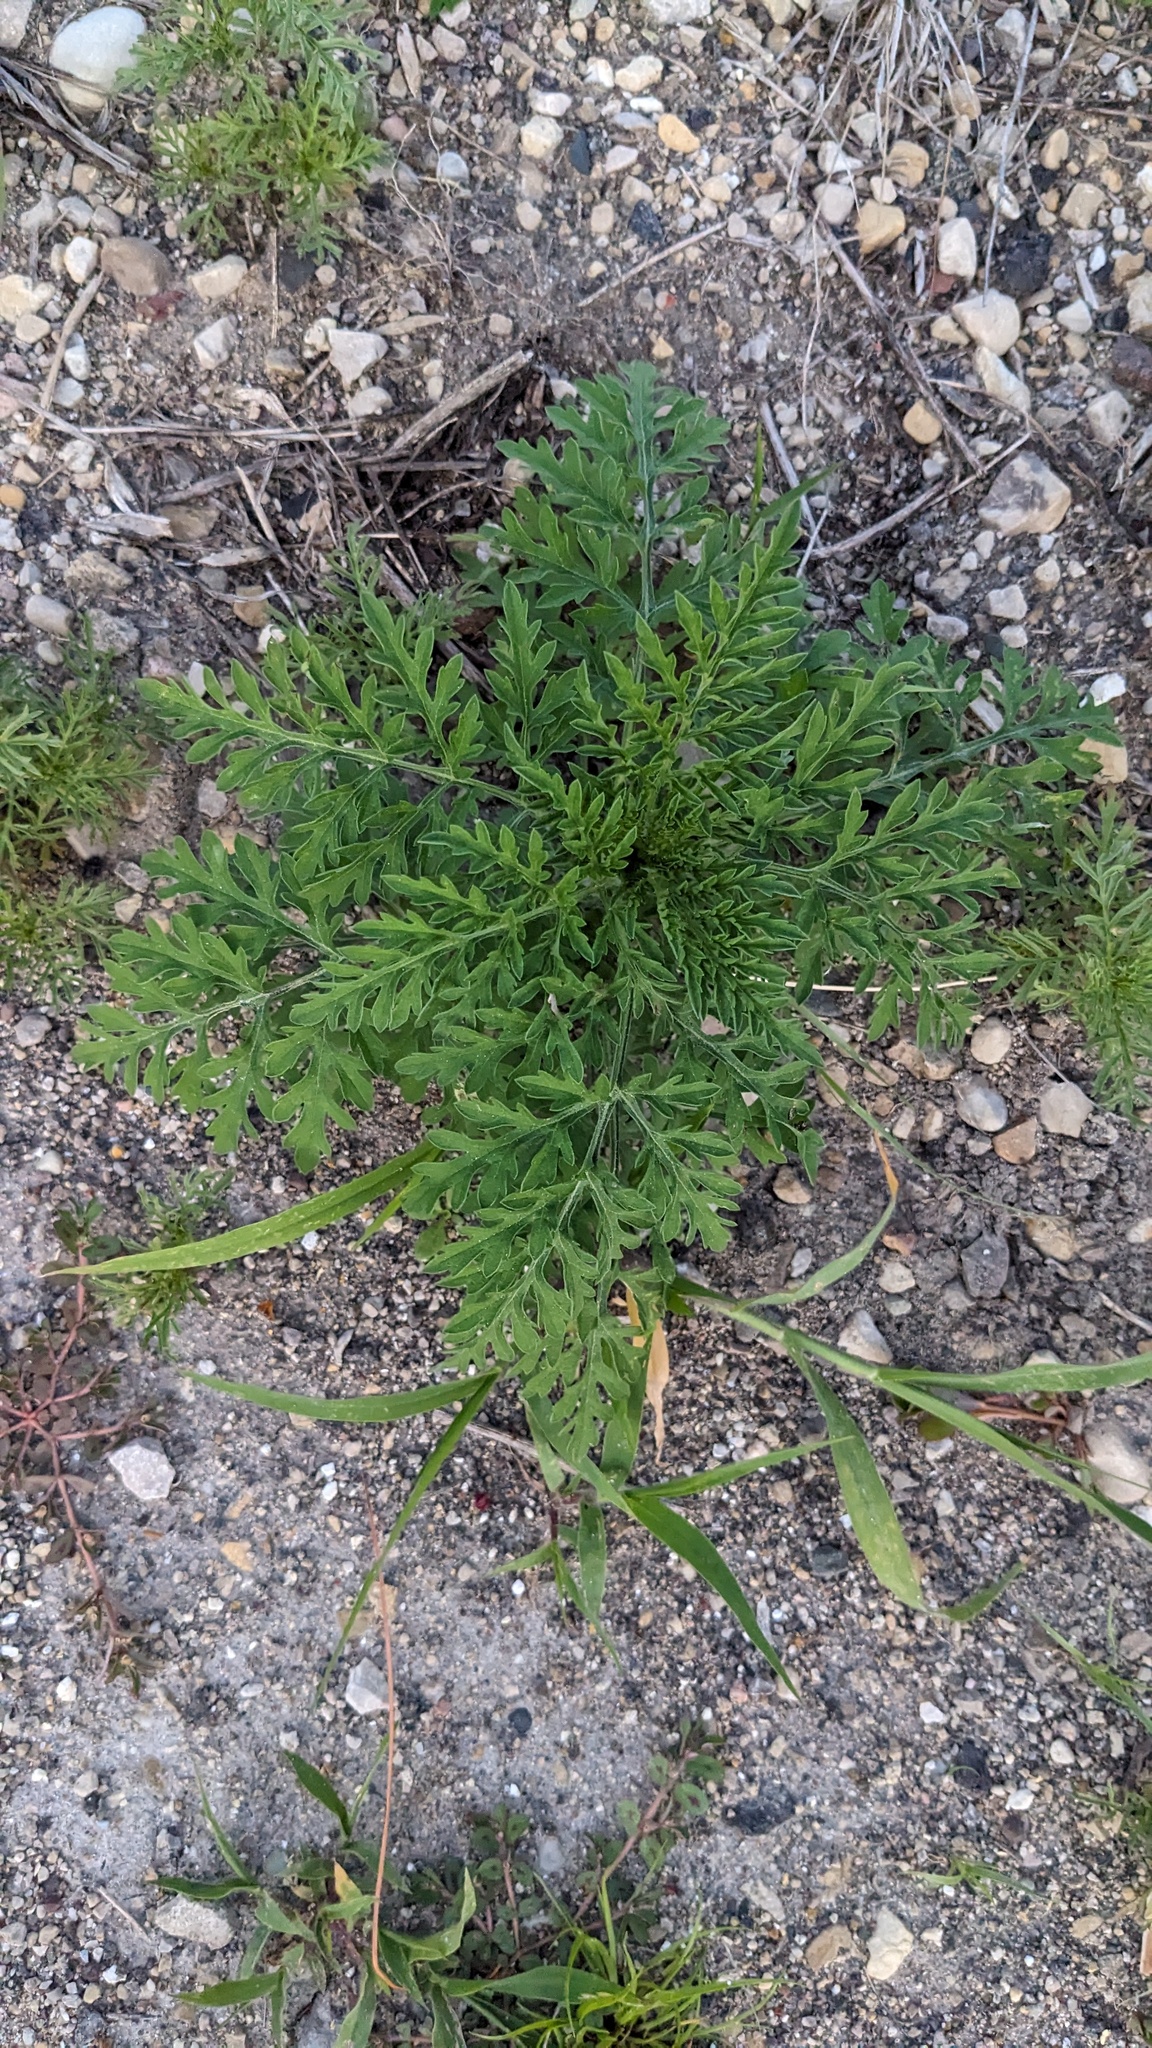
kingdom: Plantae
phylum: Tracheophyta
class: Magnoliopsida
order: Asterales
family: Asteraceae
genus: Ambrosia
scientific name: Ambrosia artemisiifolia
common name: Annual ragweed
